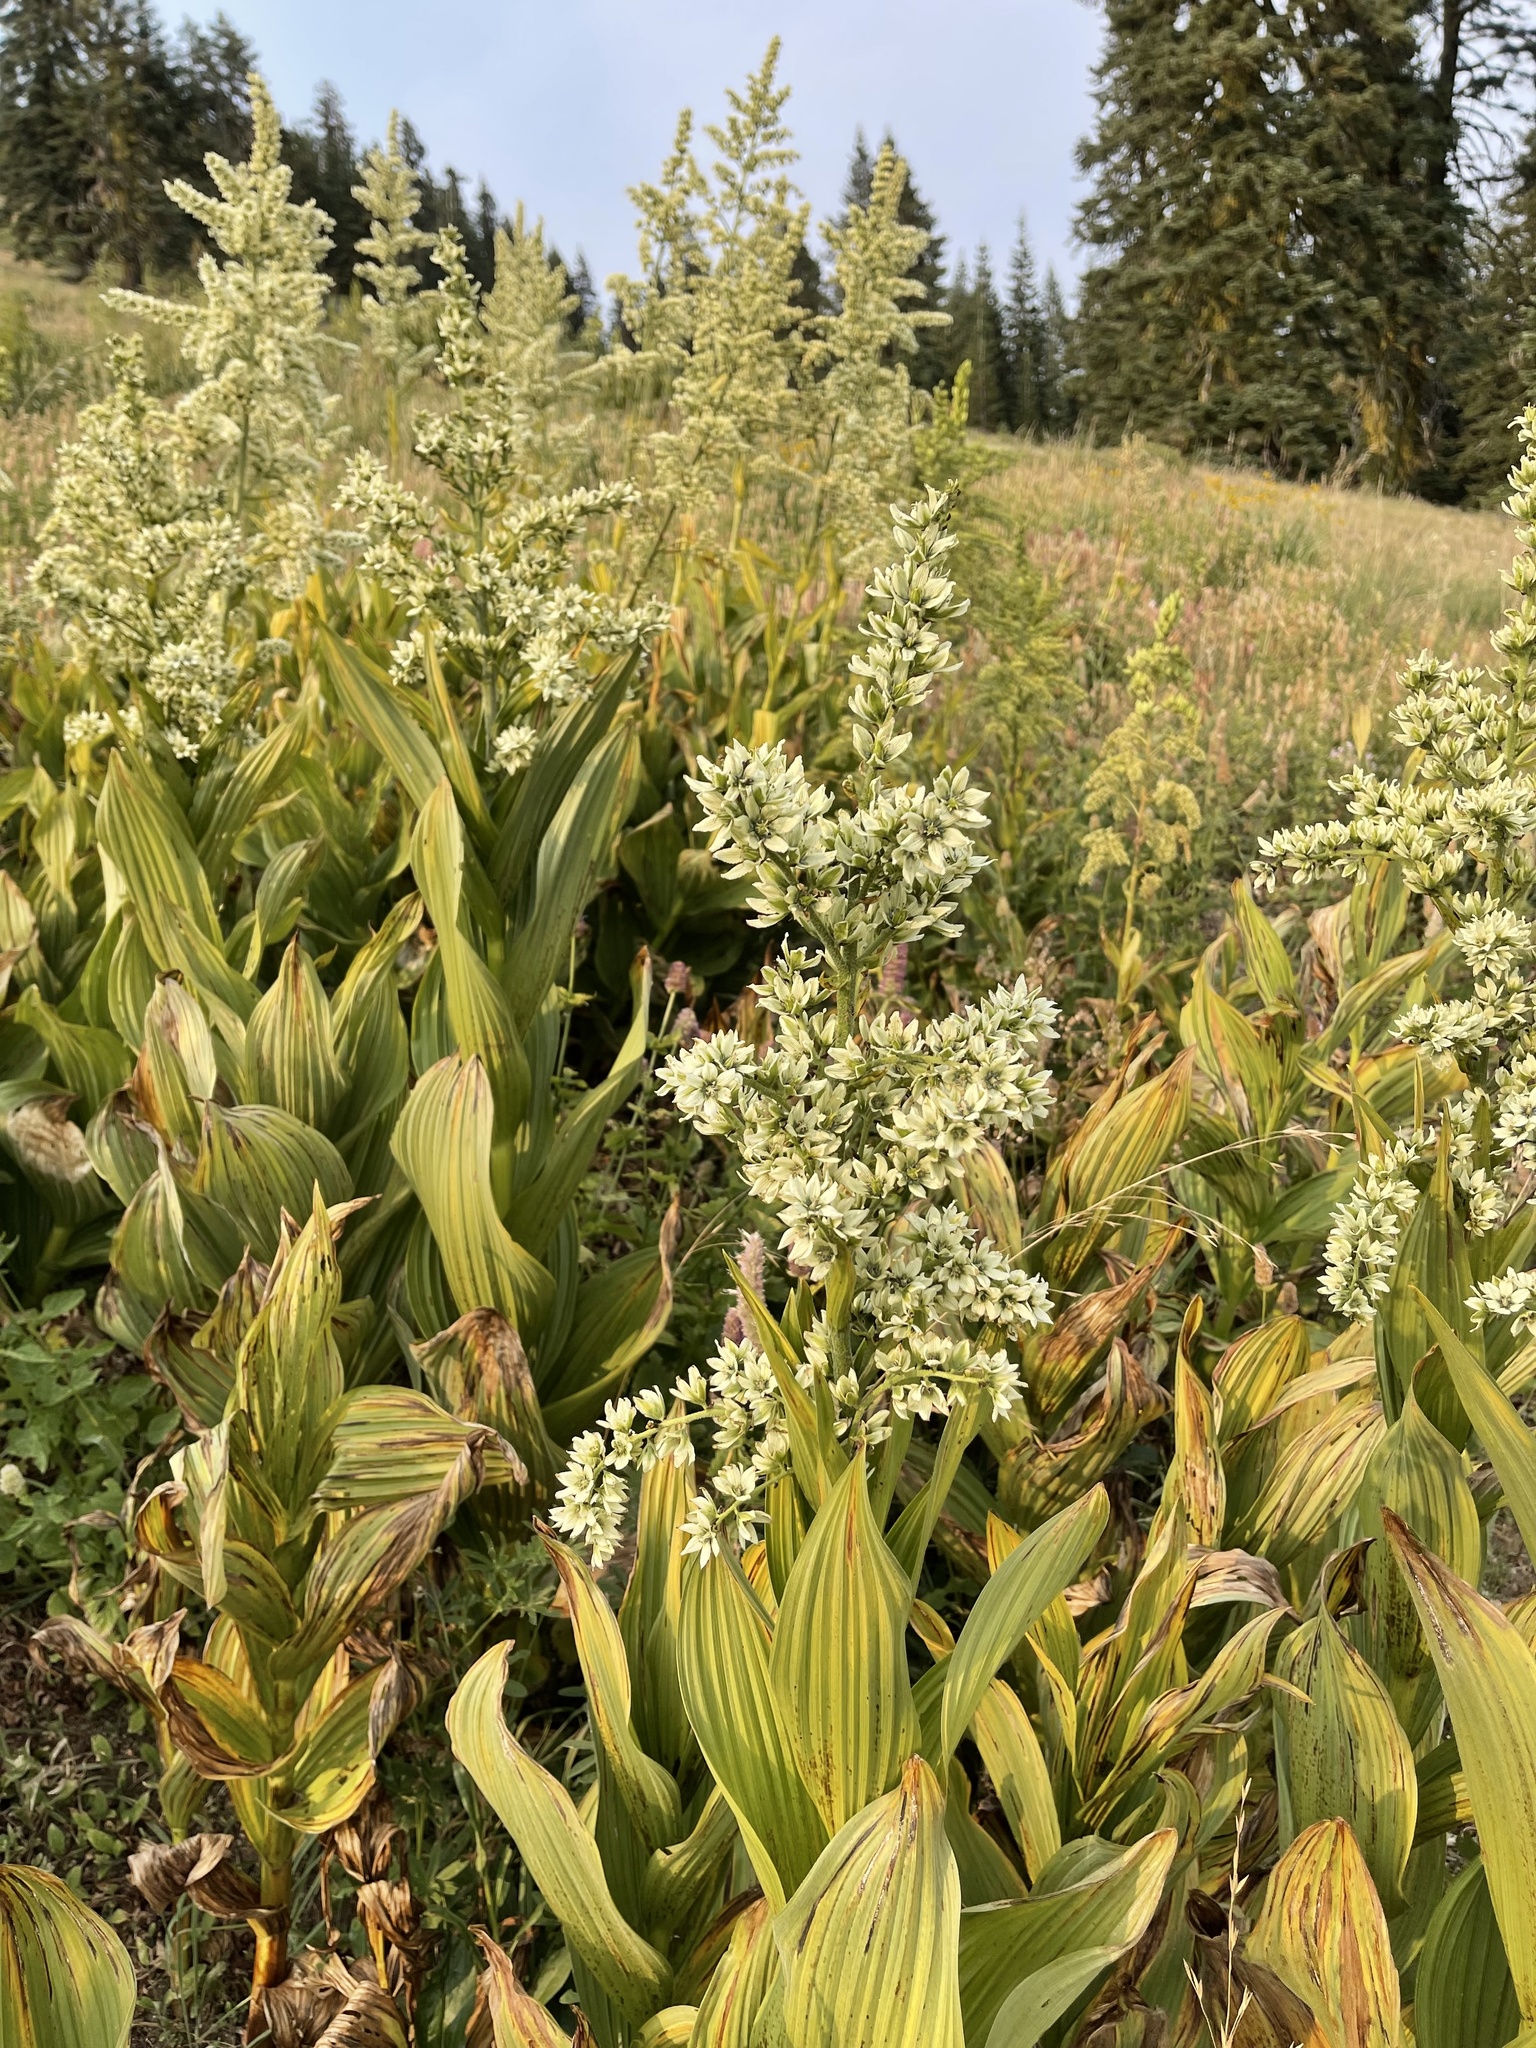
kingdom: Plantae
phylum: Tracheophyta
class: Liliopsida
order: Liliales
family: Melanthiaceae
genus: Veratrum
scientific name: Veratrum californicum
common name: California veratrum
